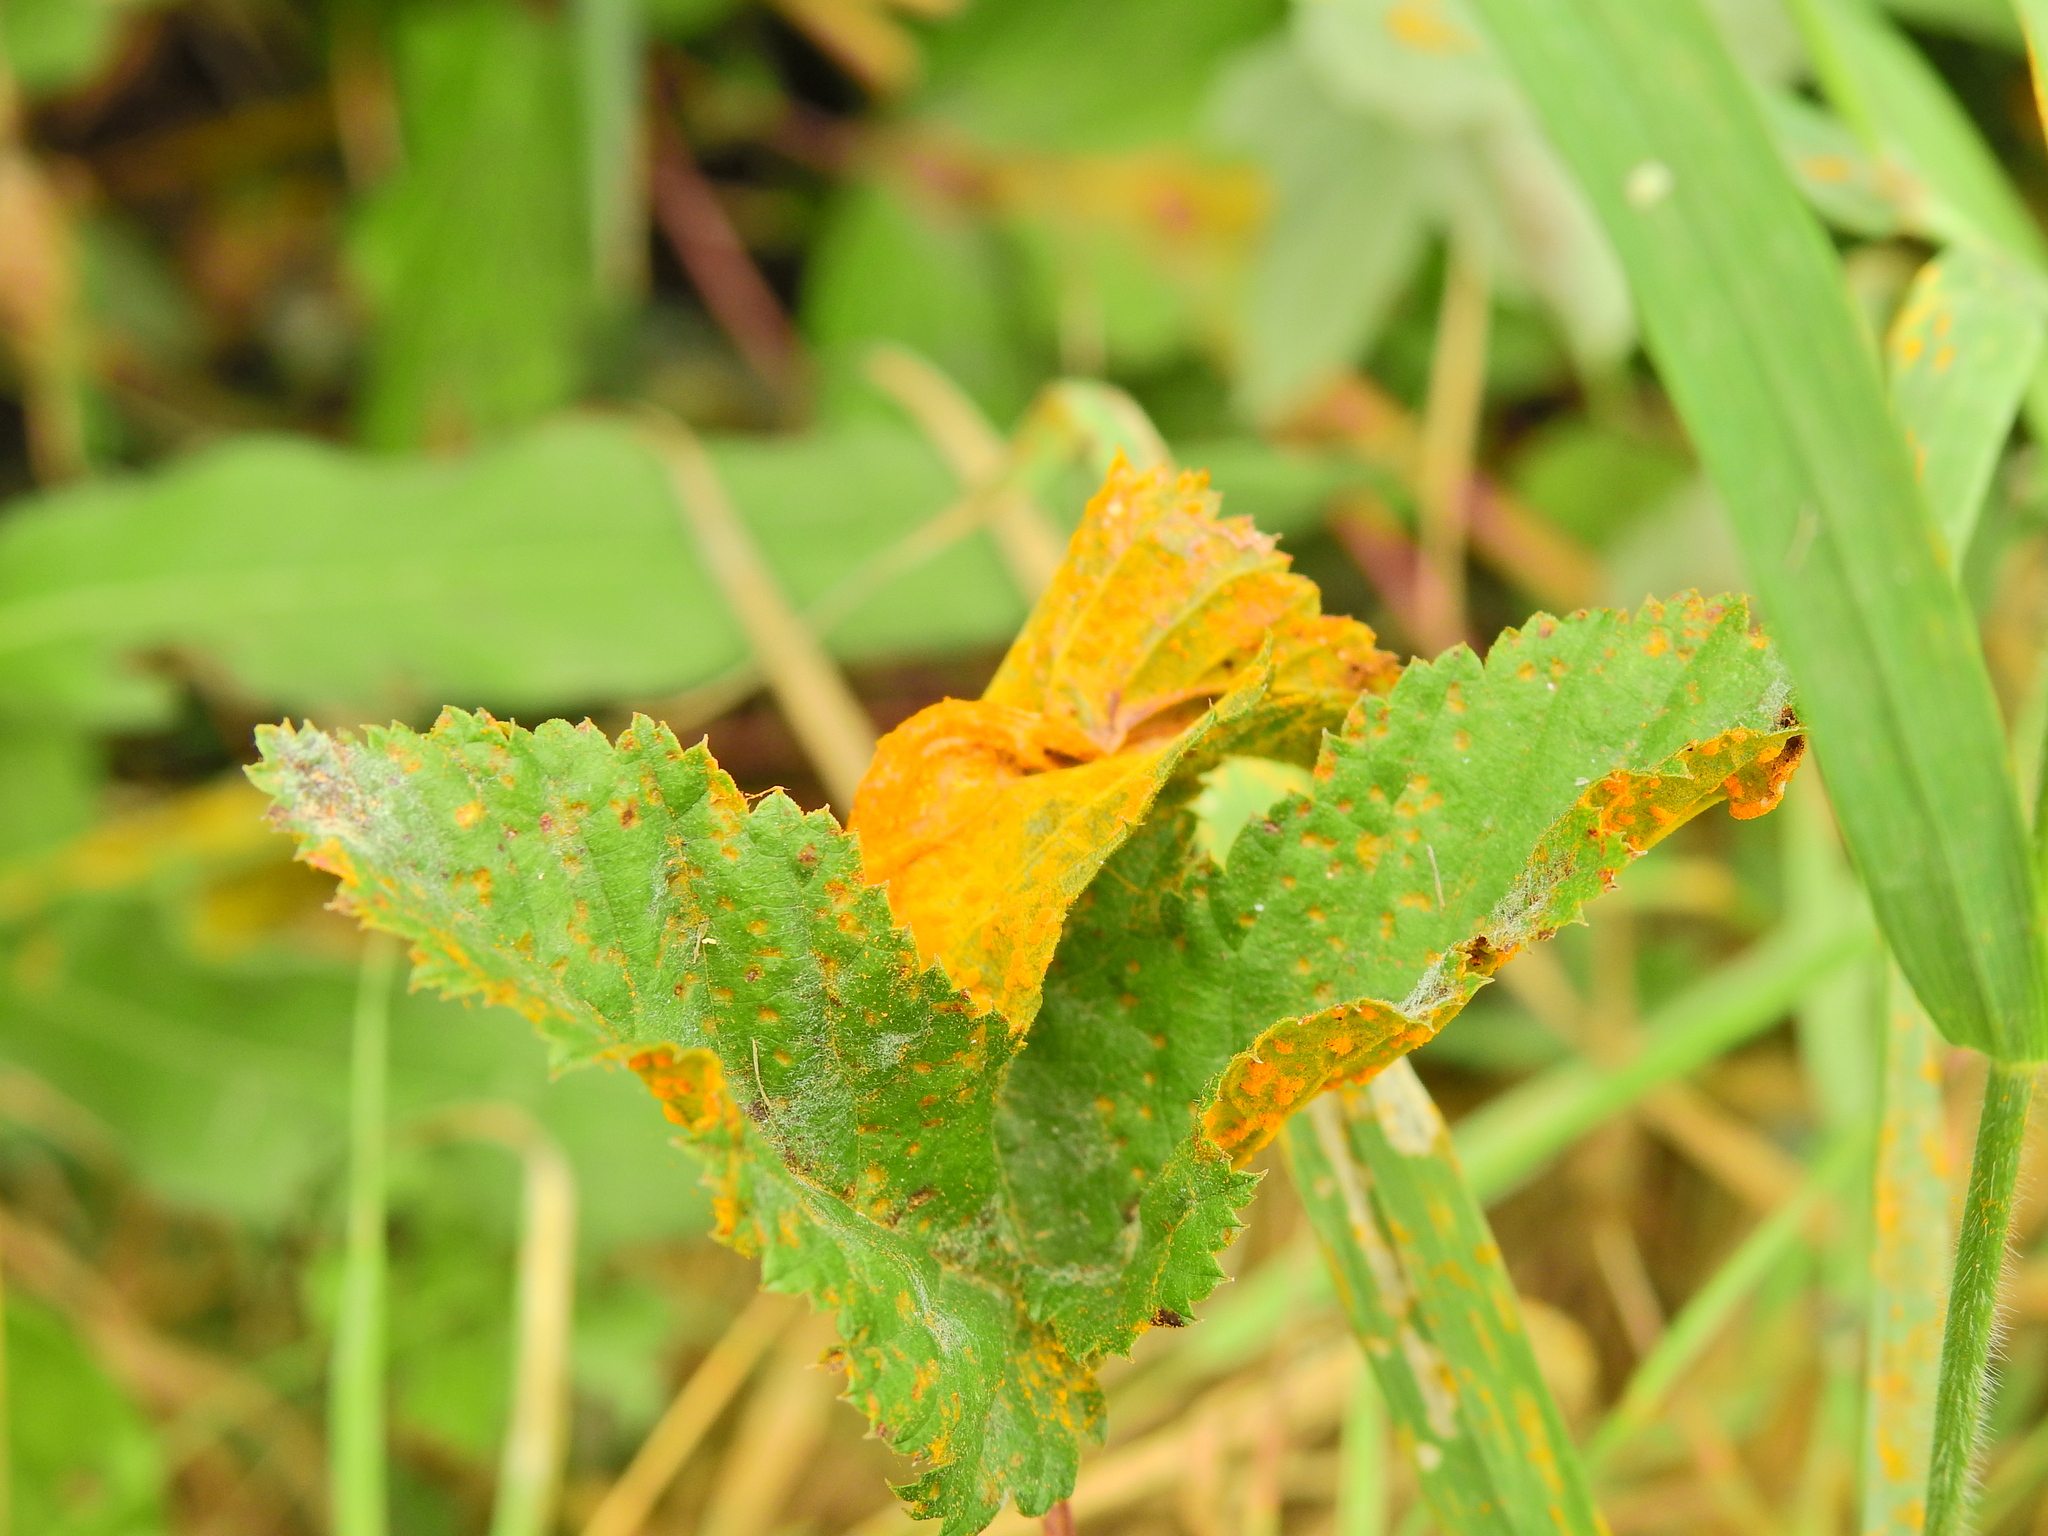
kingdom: Fungi
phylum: Basidiomycota
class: Pucciniomycetes
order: Pucciniales
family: Raveneliaceae
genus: Triphragmium
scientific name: Triphragmium ulmariae
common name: Meadowsweet rust
